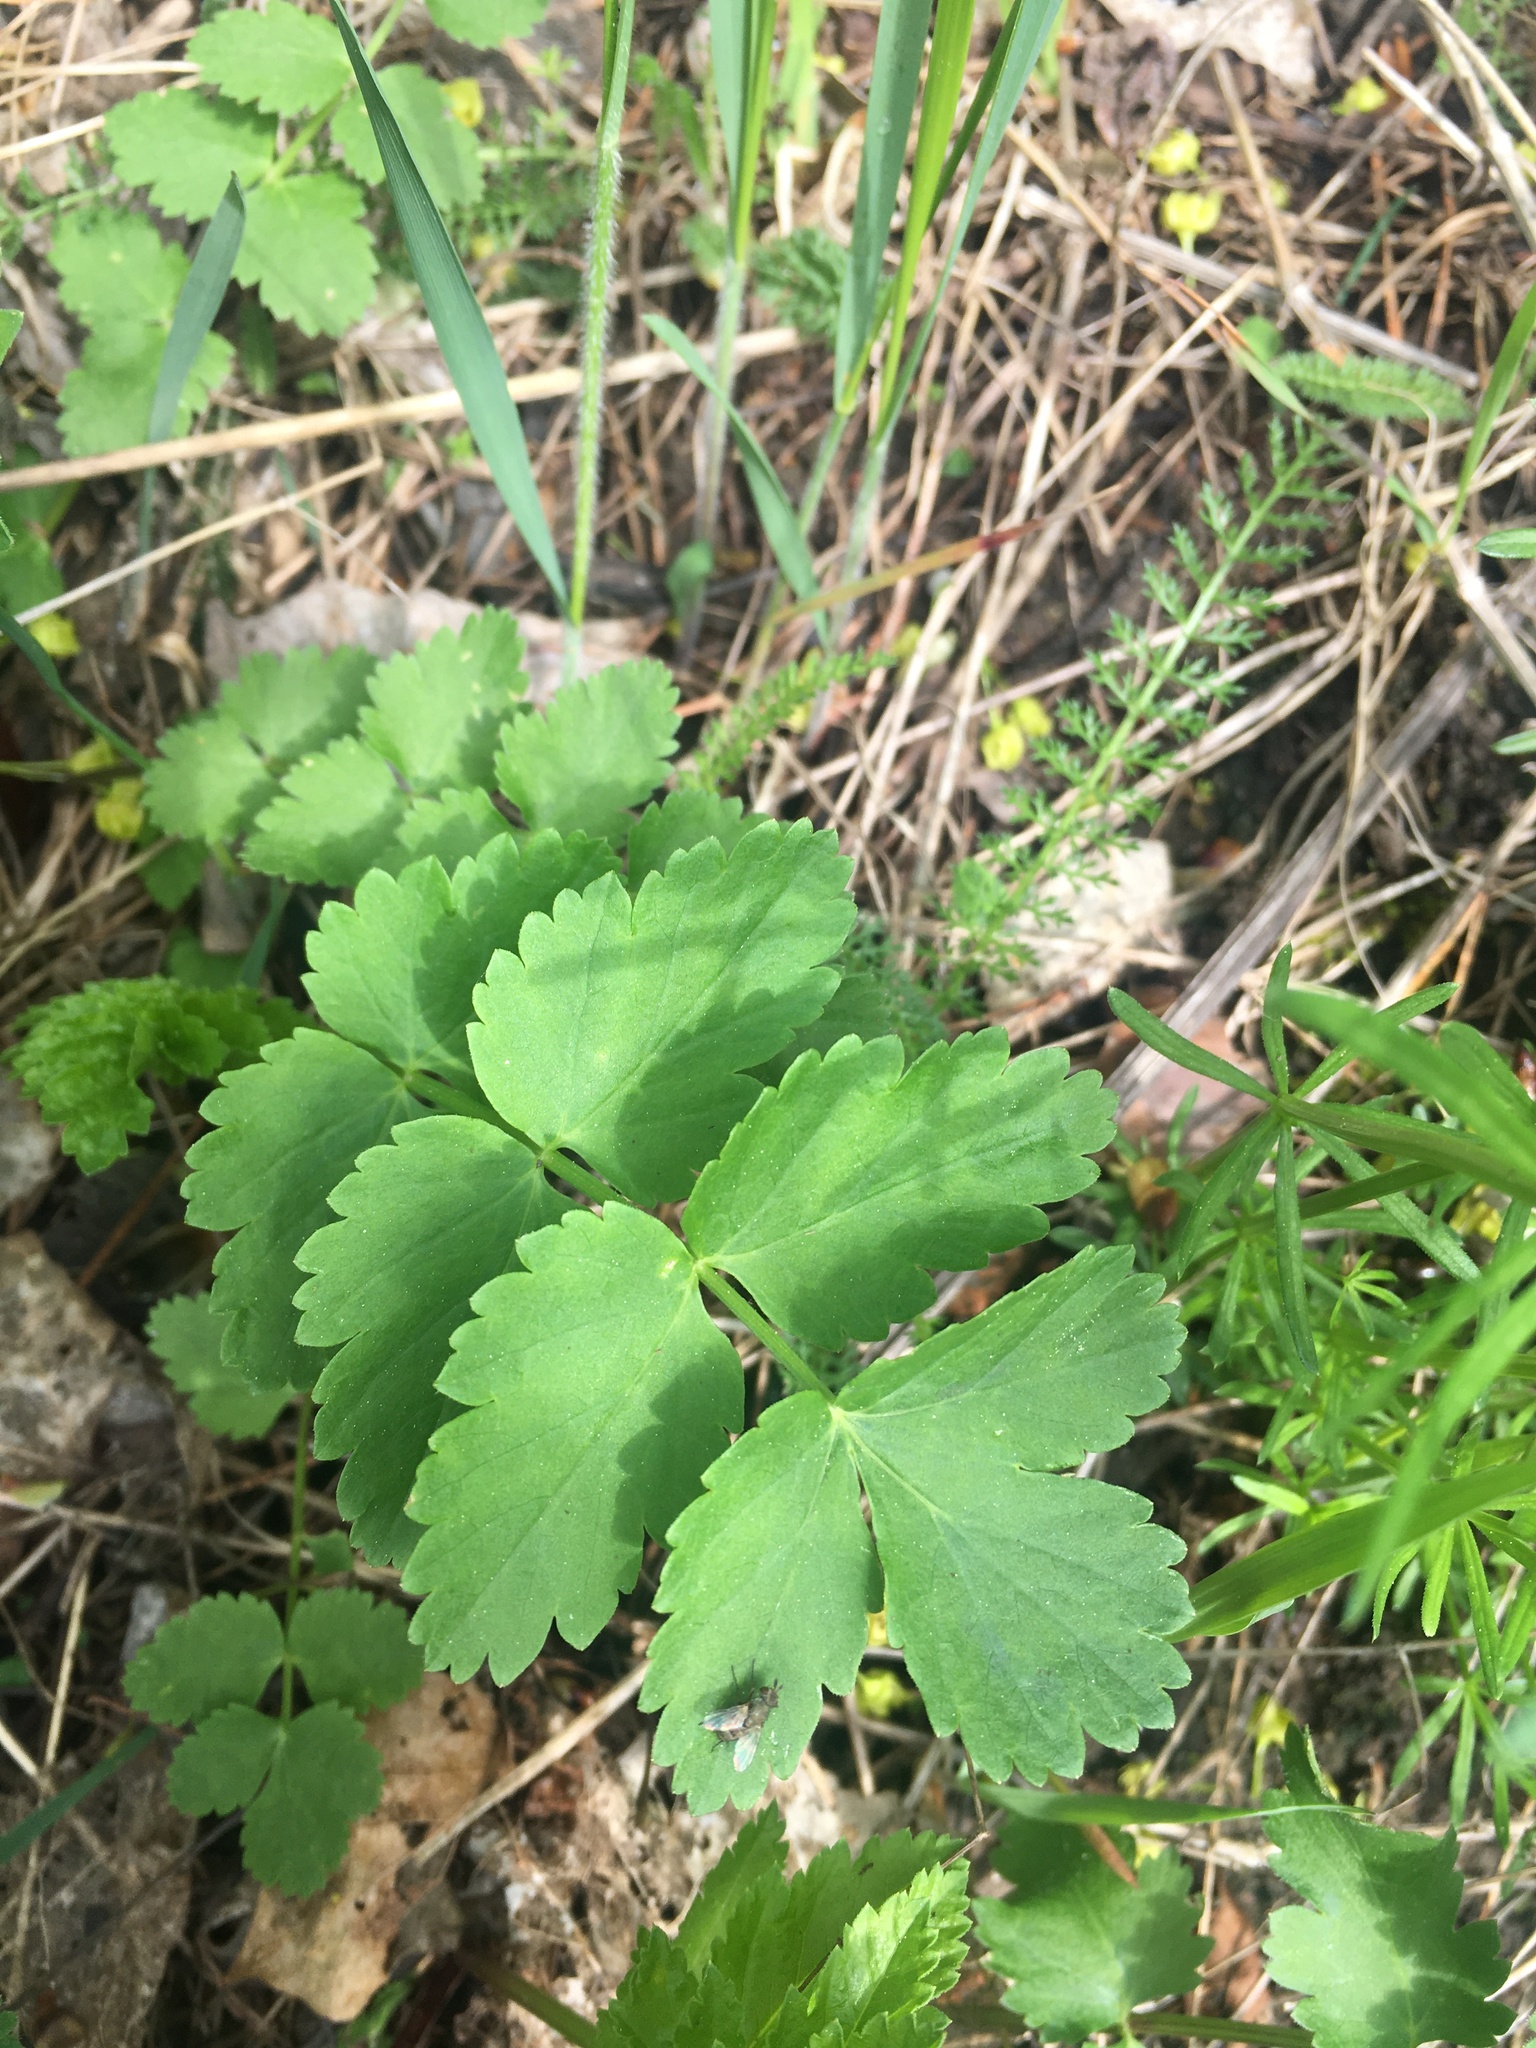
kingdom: Plantae
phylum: Tracheophyta
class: Magnoliopsida
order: Apiales
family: Apiaceae
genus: Pimpinella
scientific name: Pimpinella saxifraga
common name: Burnet-saxifrage
